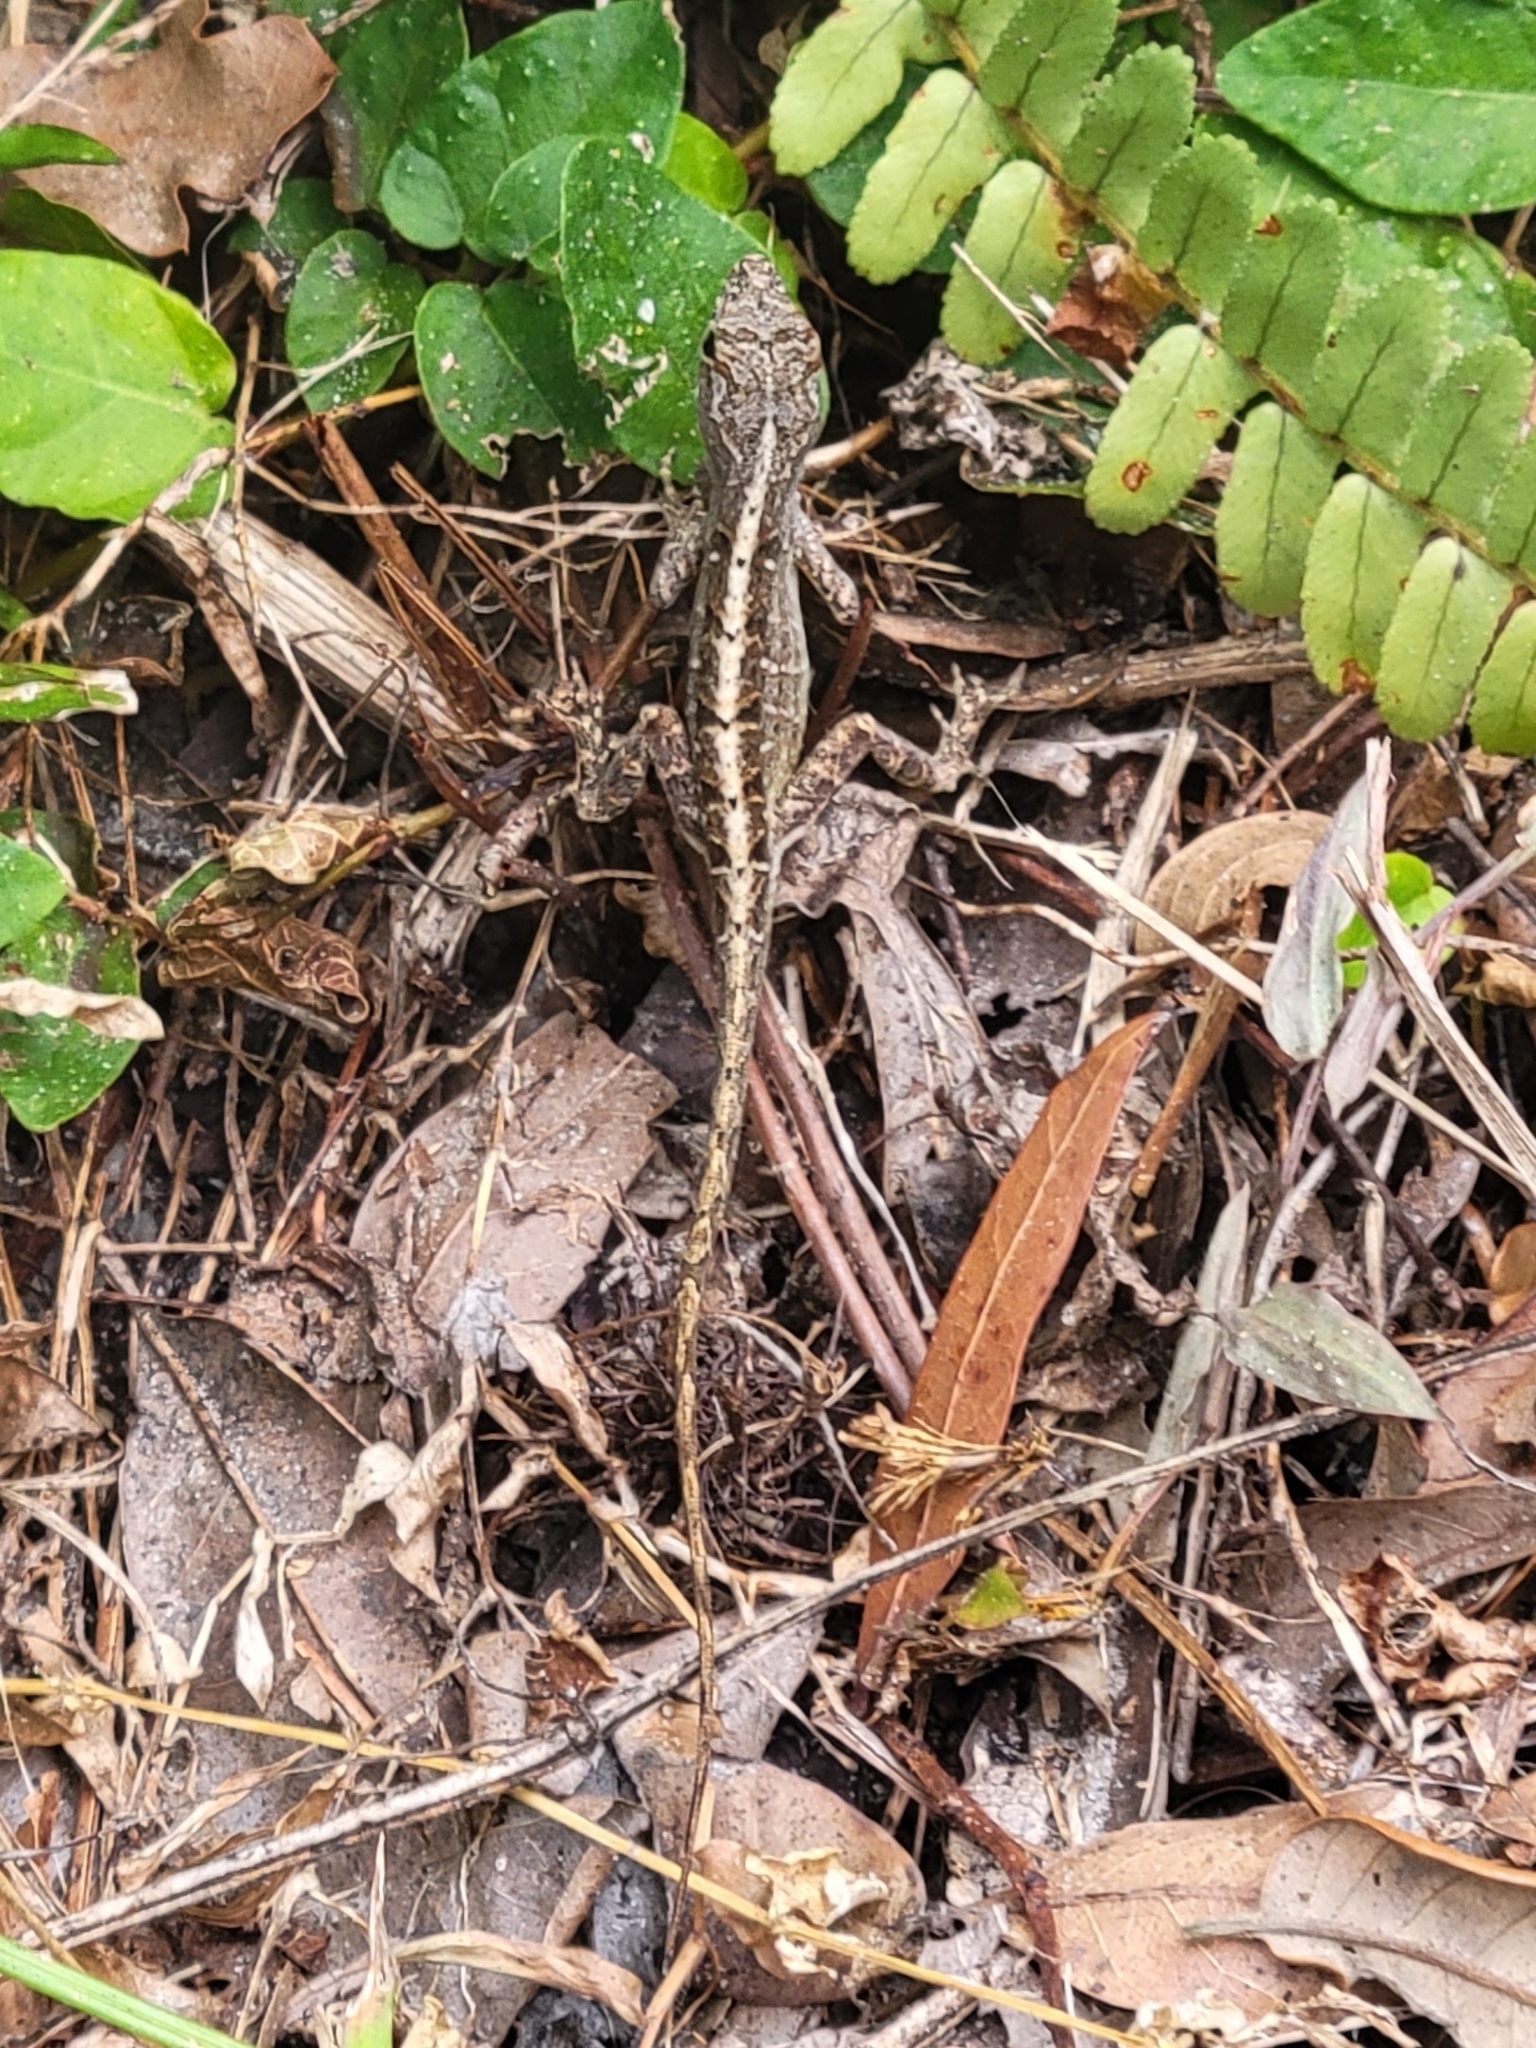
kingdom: Animalia
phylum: Chordata
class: Squamata
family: Dactyloidae
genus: Anolis
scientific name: Anolis sagrei
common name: Brown anole
